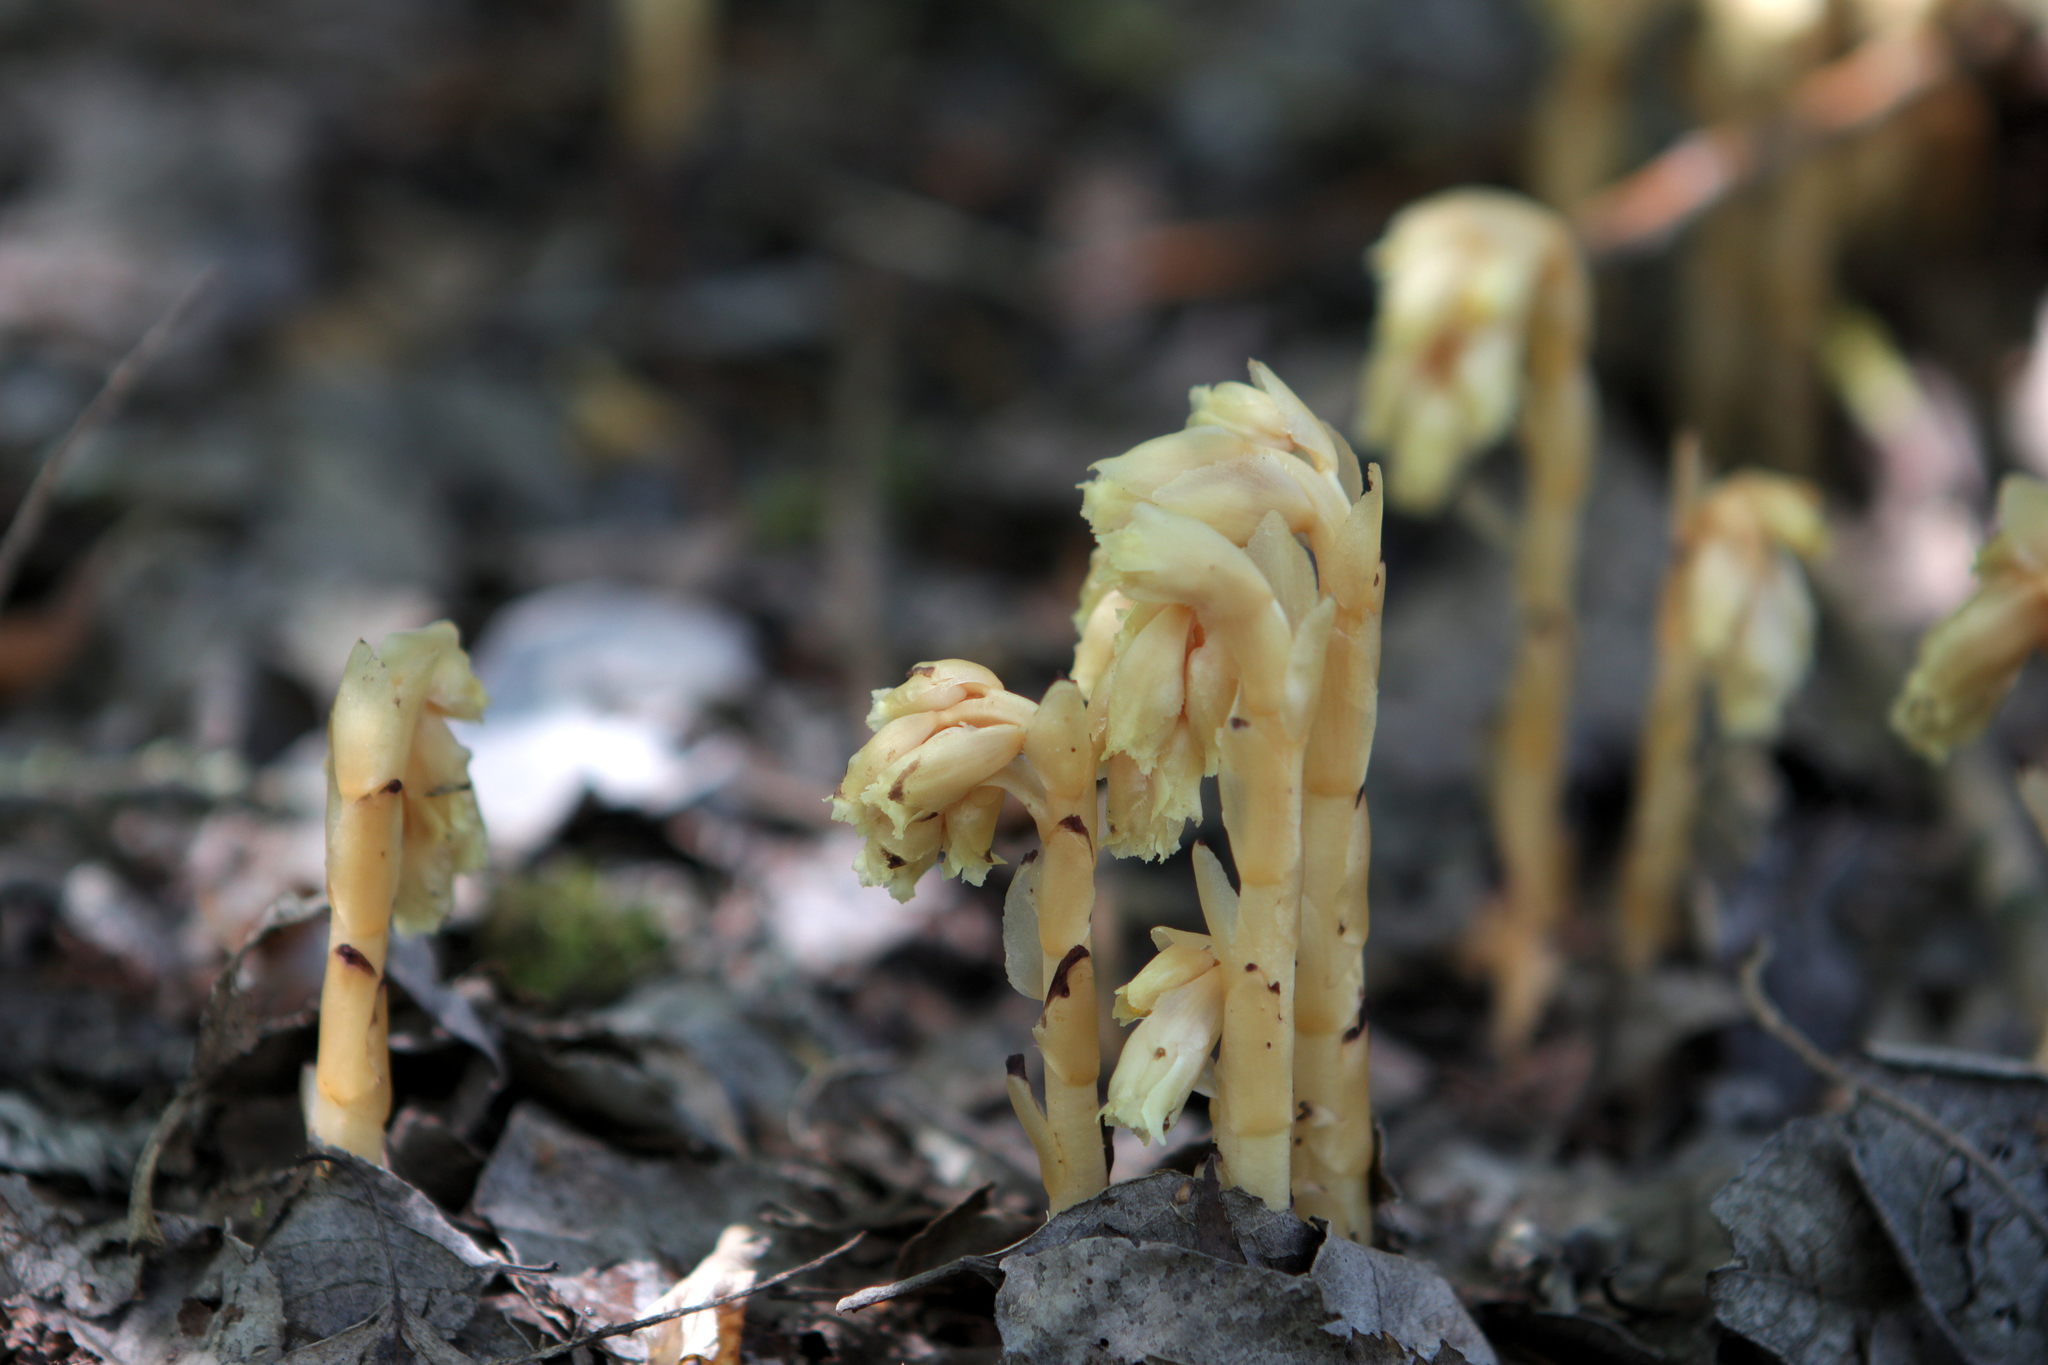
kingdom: Plantae
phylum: Tracheophyta
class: Magnoliopsida
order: Ericales
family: Ericaceae
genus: Hypopitys
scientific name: Hypopitys monotropa
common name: Yellow bird's-nest
